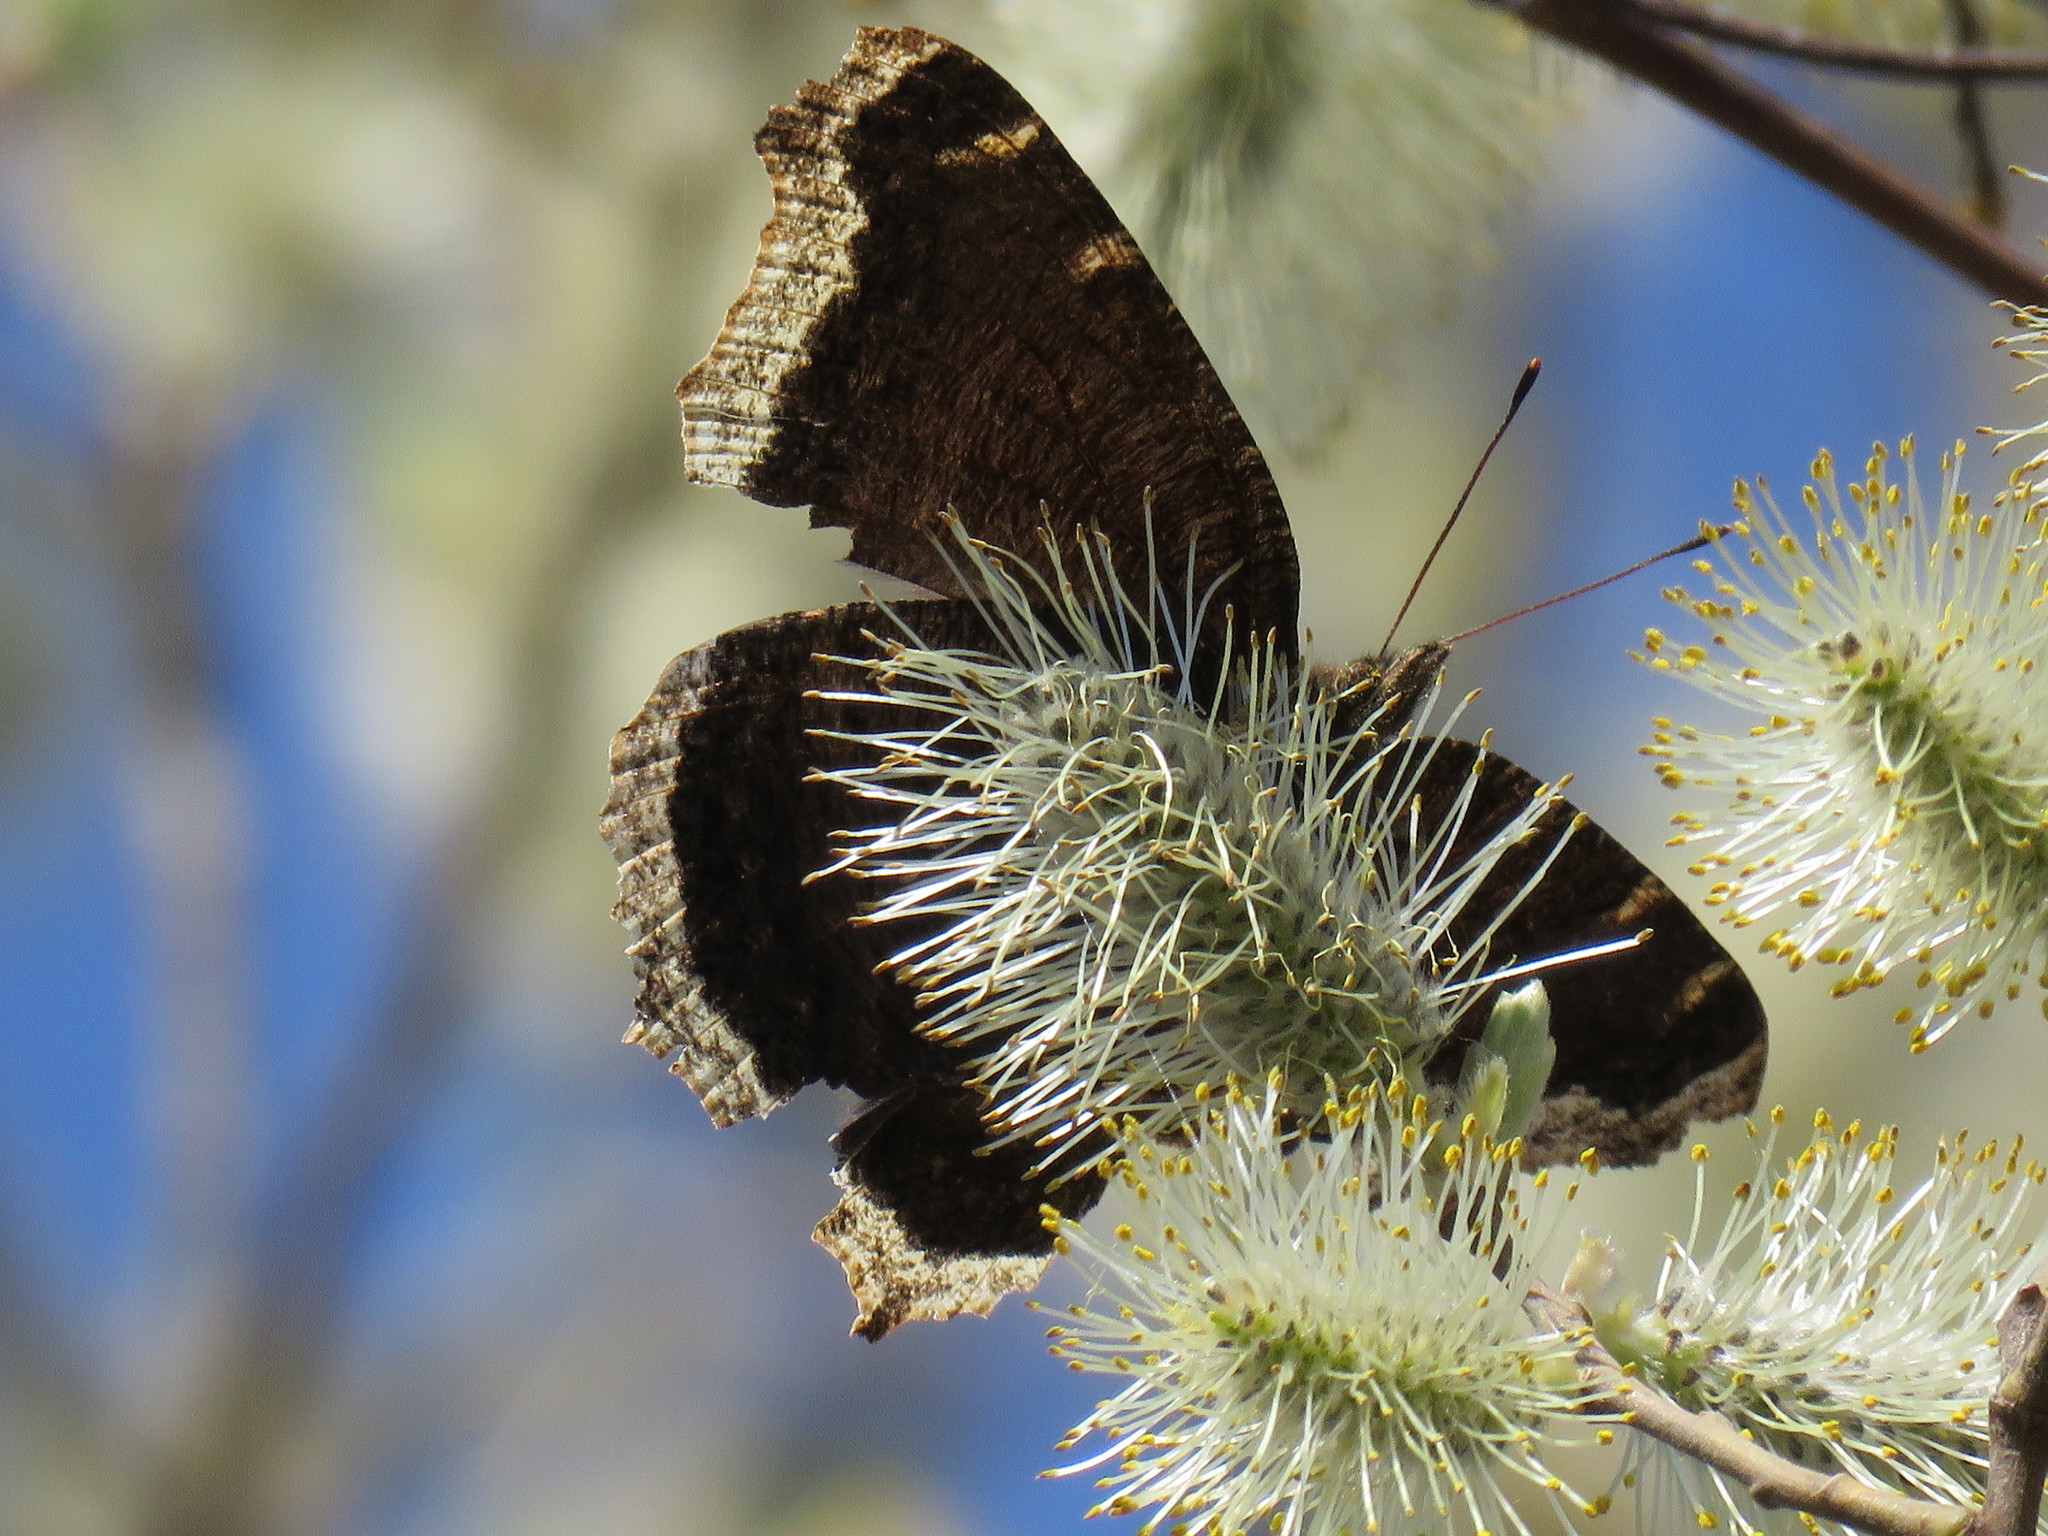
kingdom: Animalia
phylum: Arthropoda
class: Insecta
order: Lepidoptera
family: Nymphalidae
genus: Nymphalis
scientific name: Nymphalis antiopa
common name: Camberwell beauty
